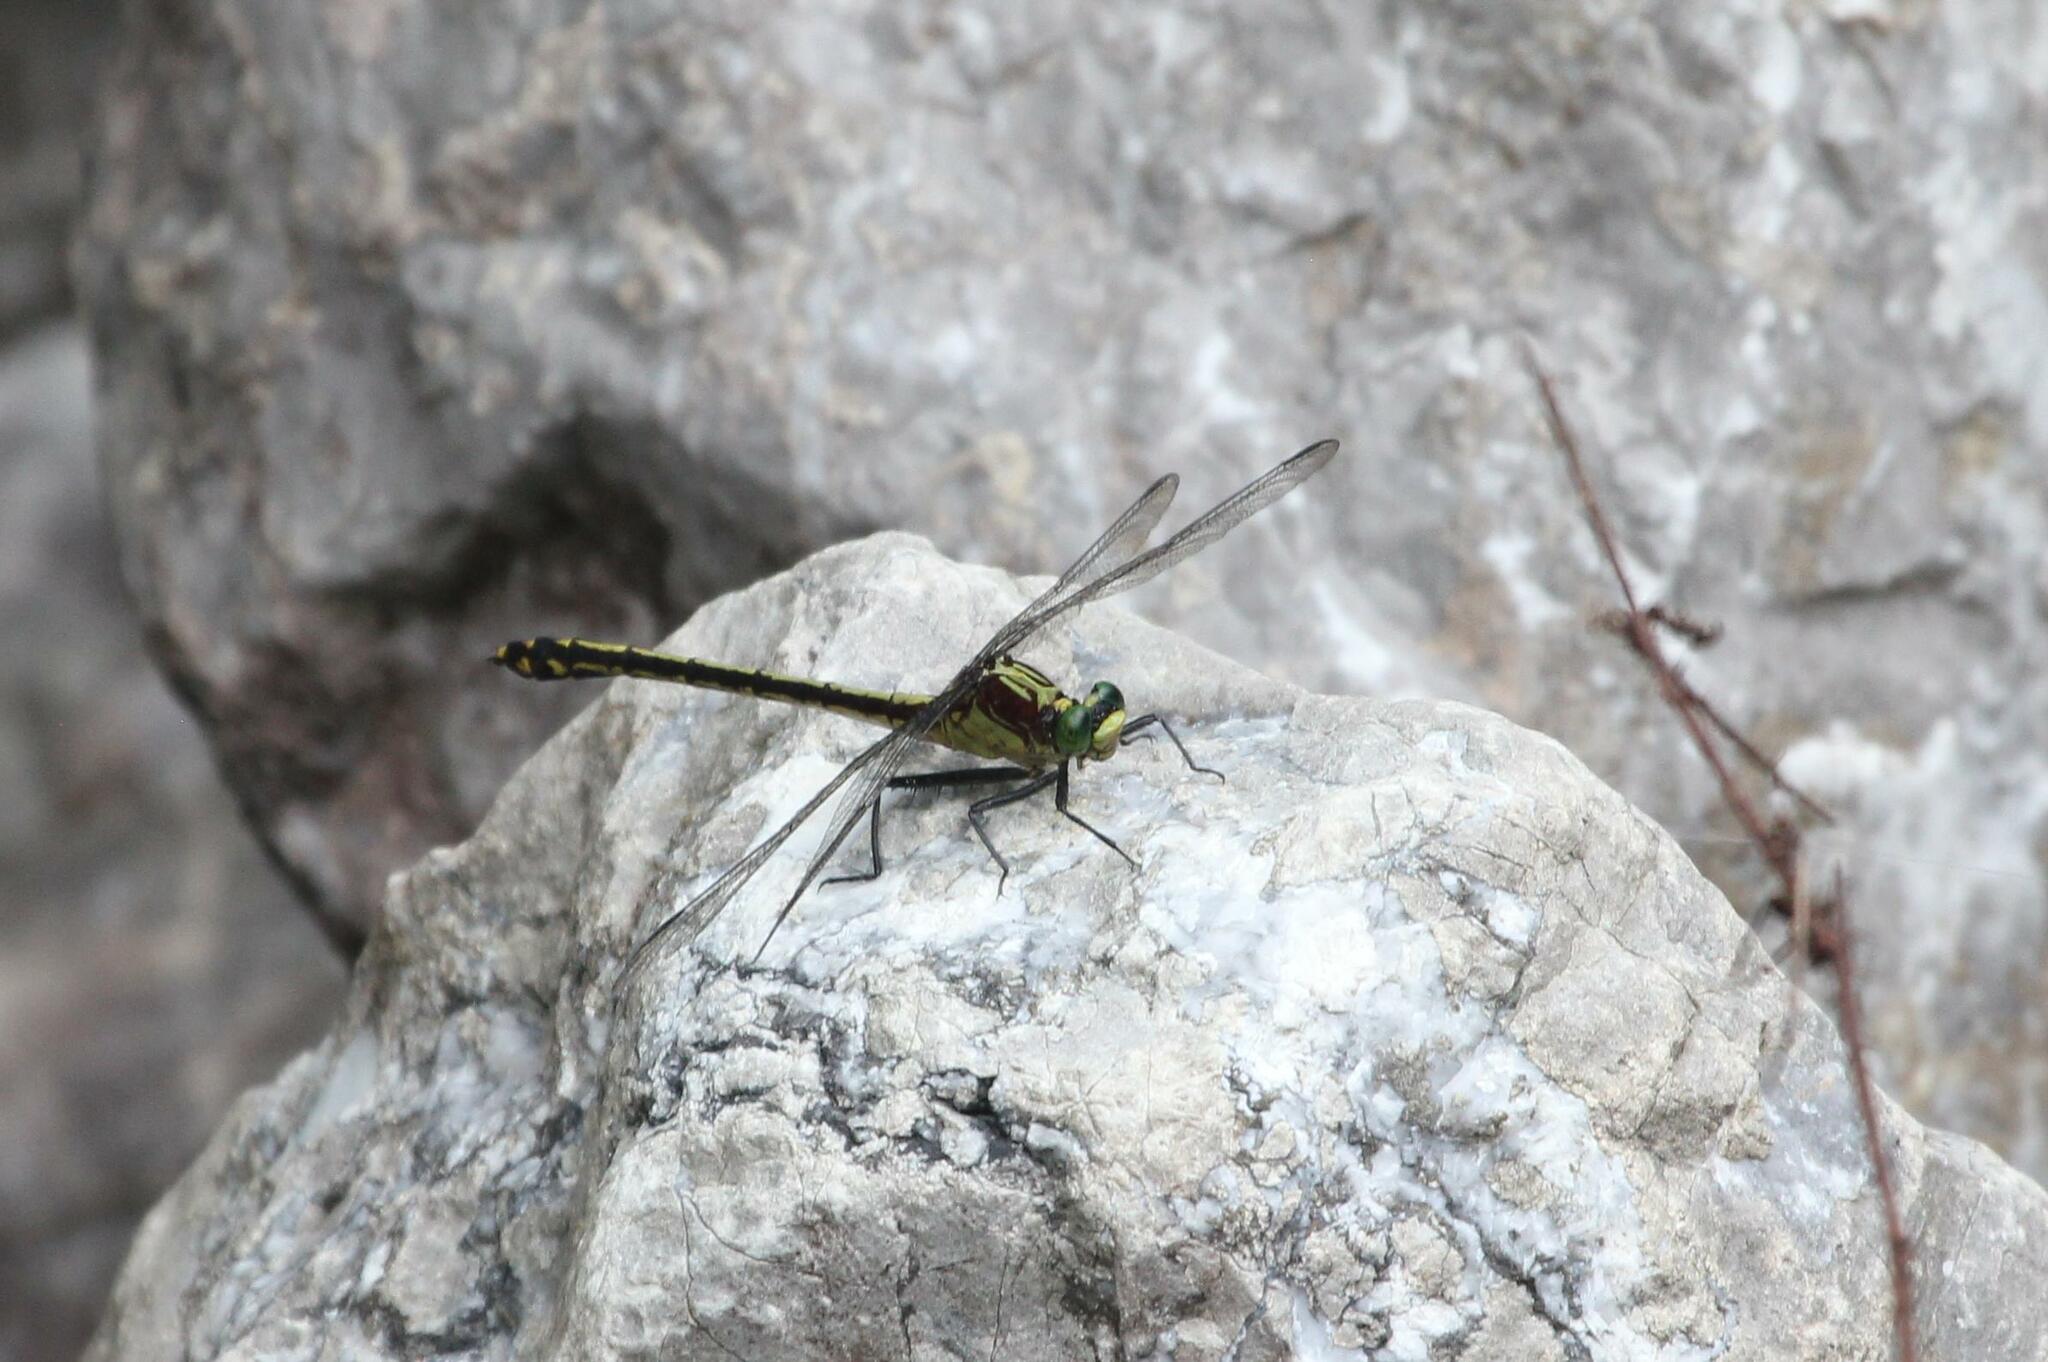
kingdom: Animalia
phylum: Arthropoda
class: Insecta
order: Odonata
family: Gomphidae
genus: Dromogomphus
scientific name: Dromogomphus spinosus
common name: Black-shouldered spinyleg
